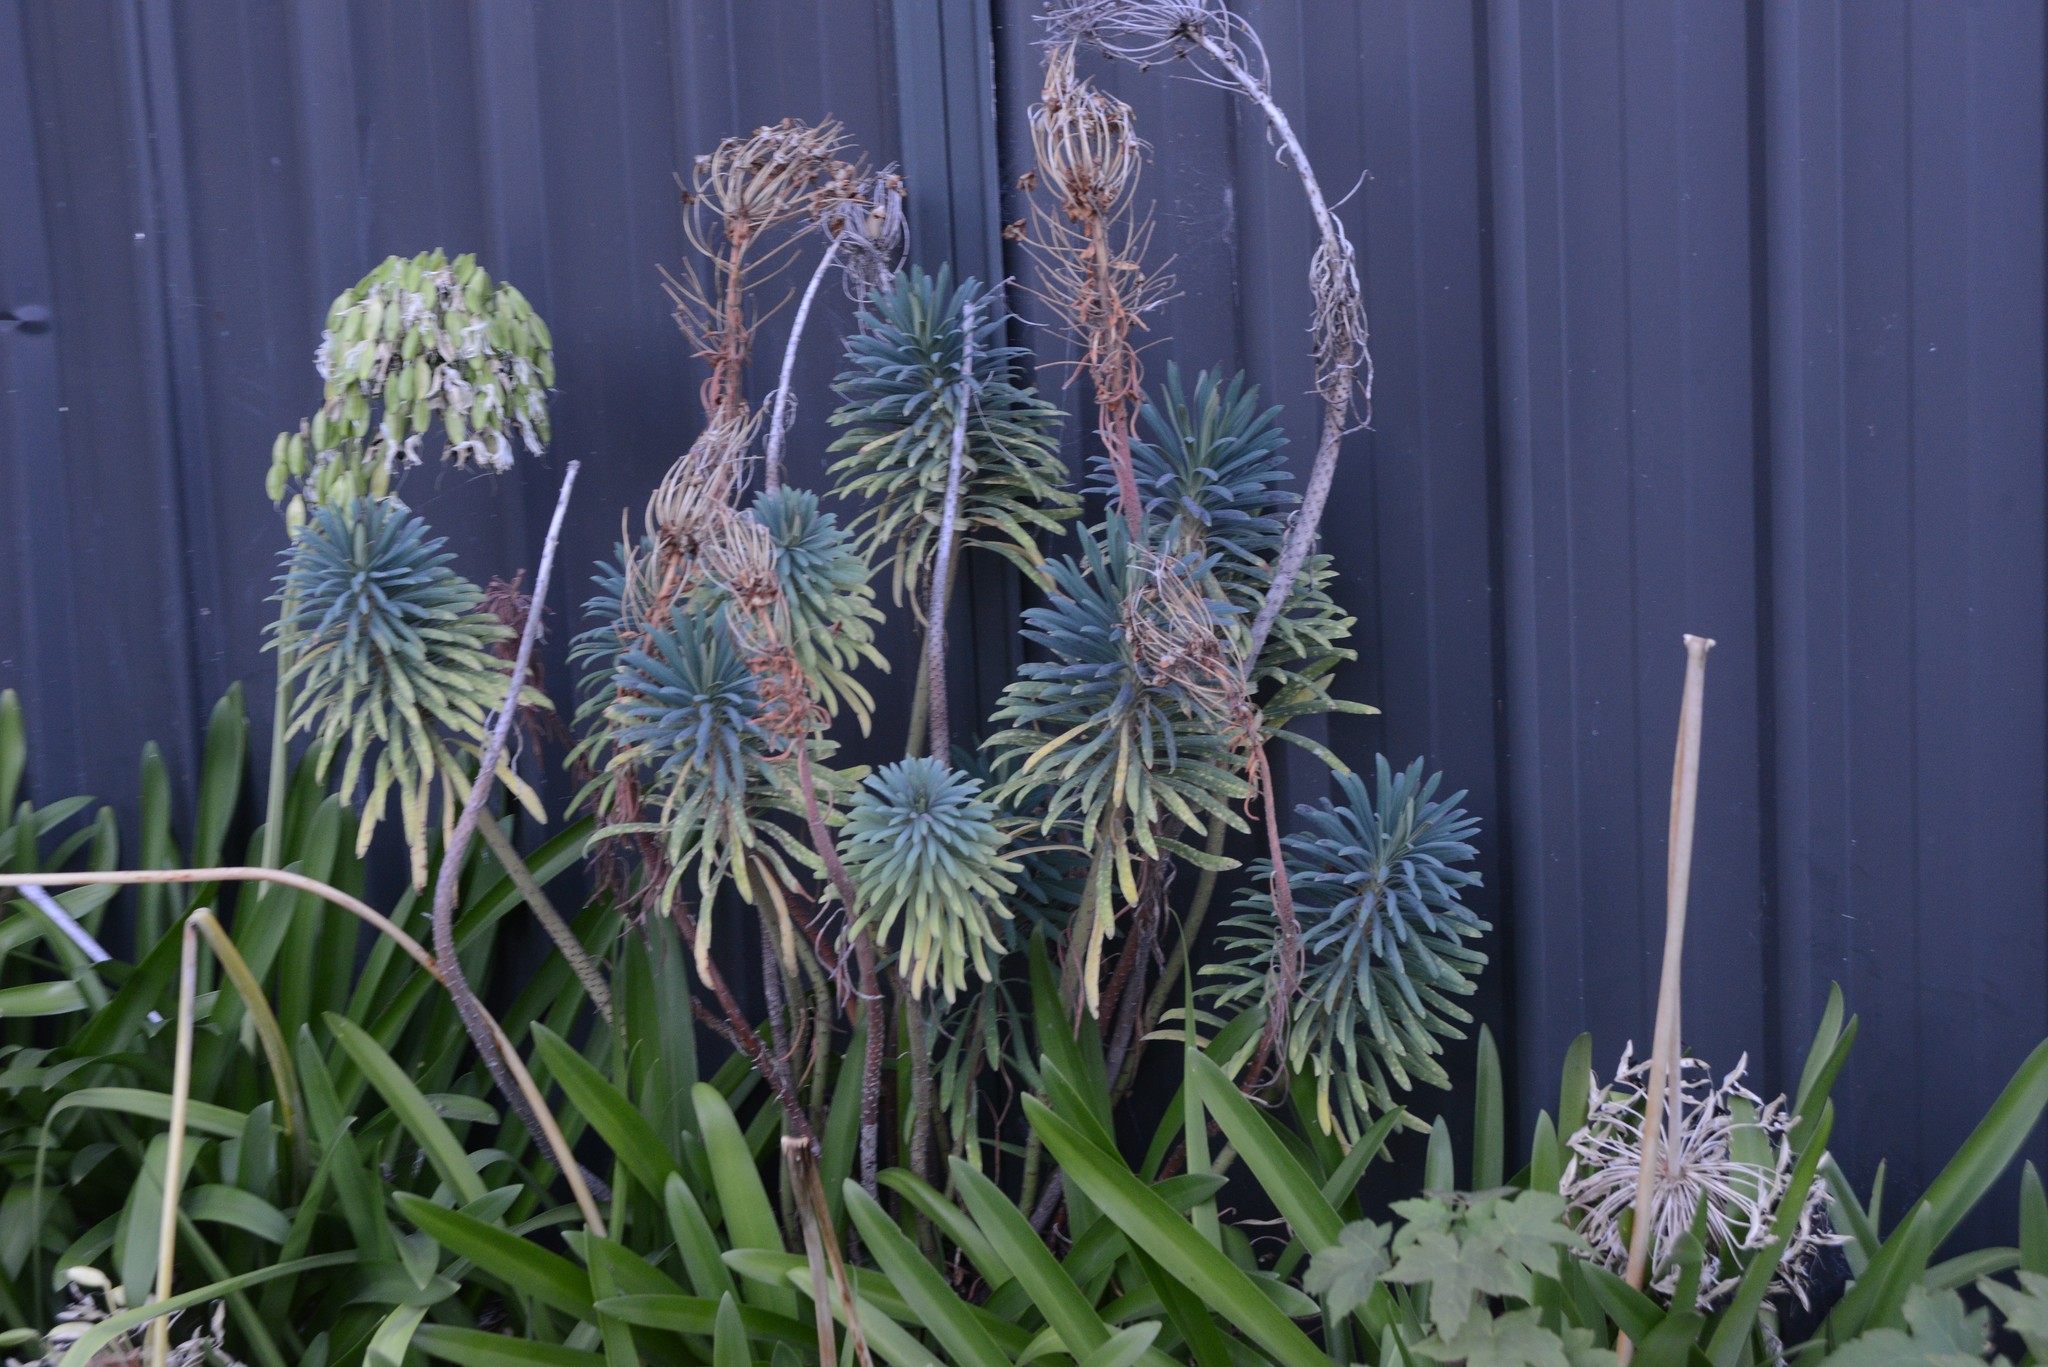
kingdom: Plantae
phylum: Tracheophyta
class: Magnoliopsida
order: Malpighiales
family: Euphorbiaceae
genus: Euphorbia
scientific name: Euphorbia characias
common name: Mediterranean spurge
